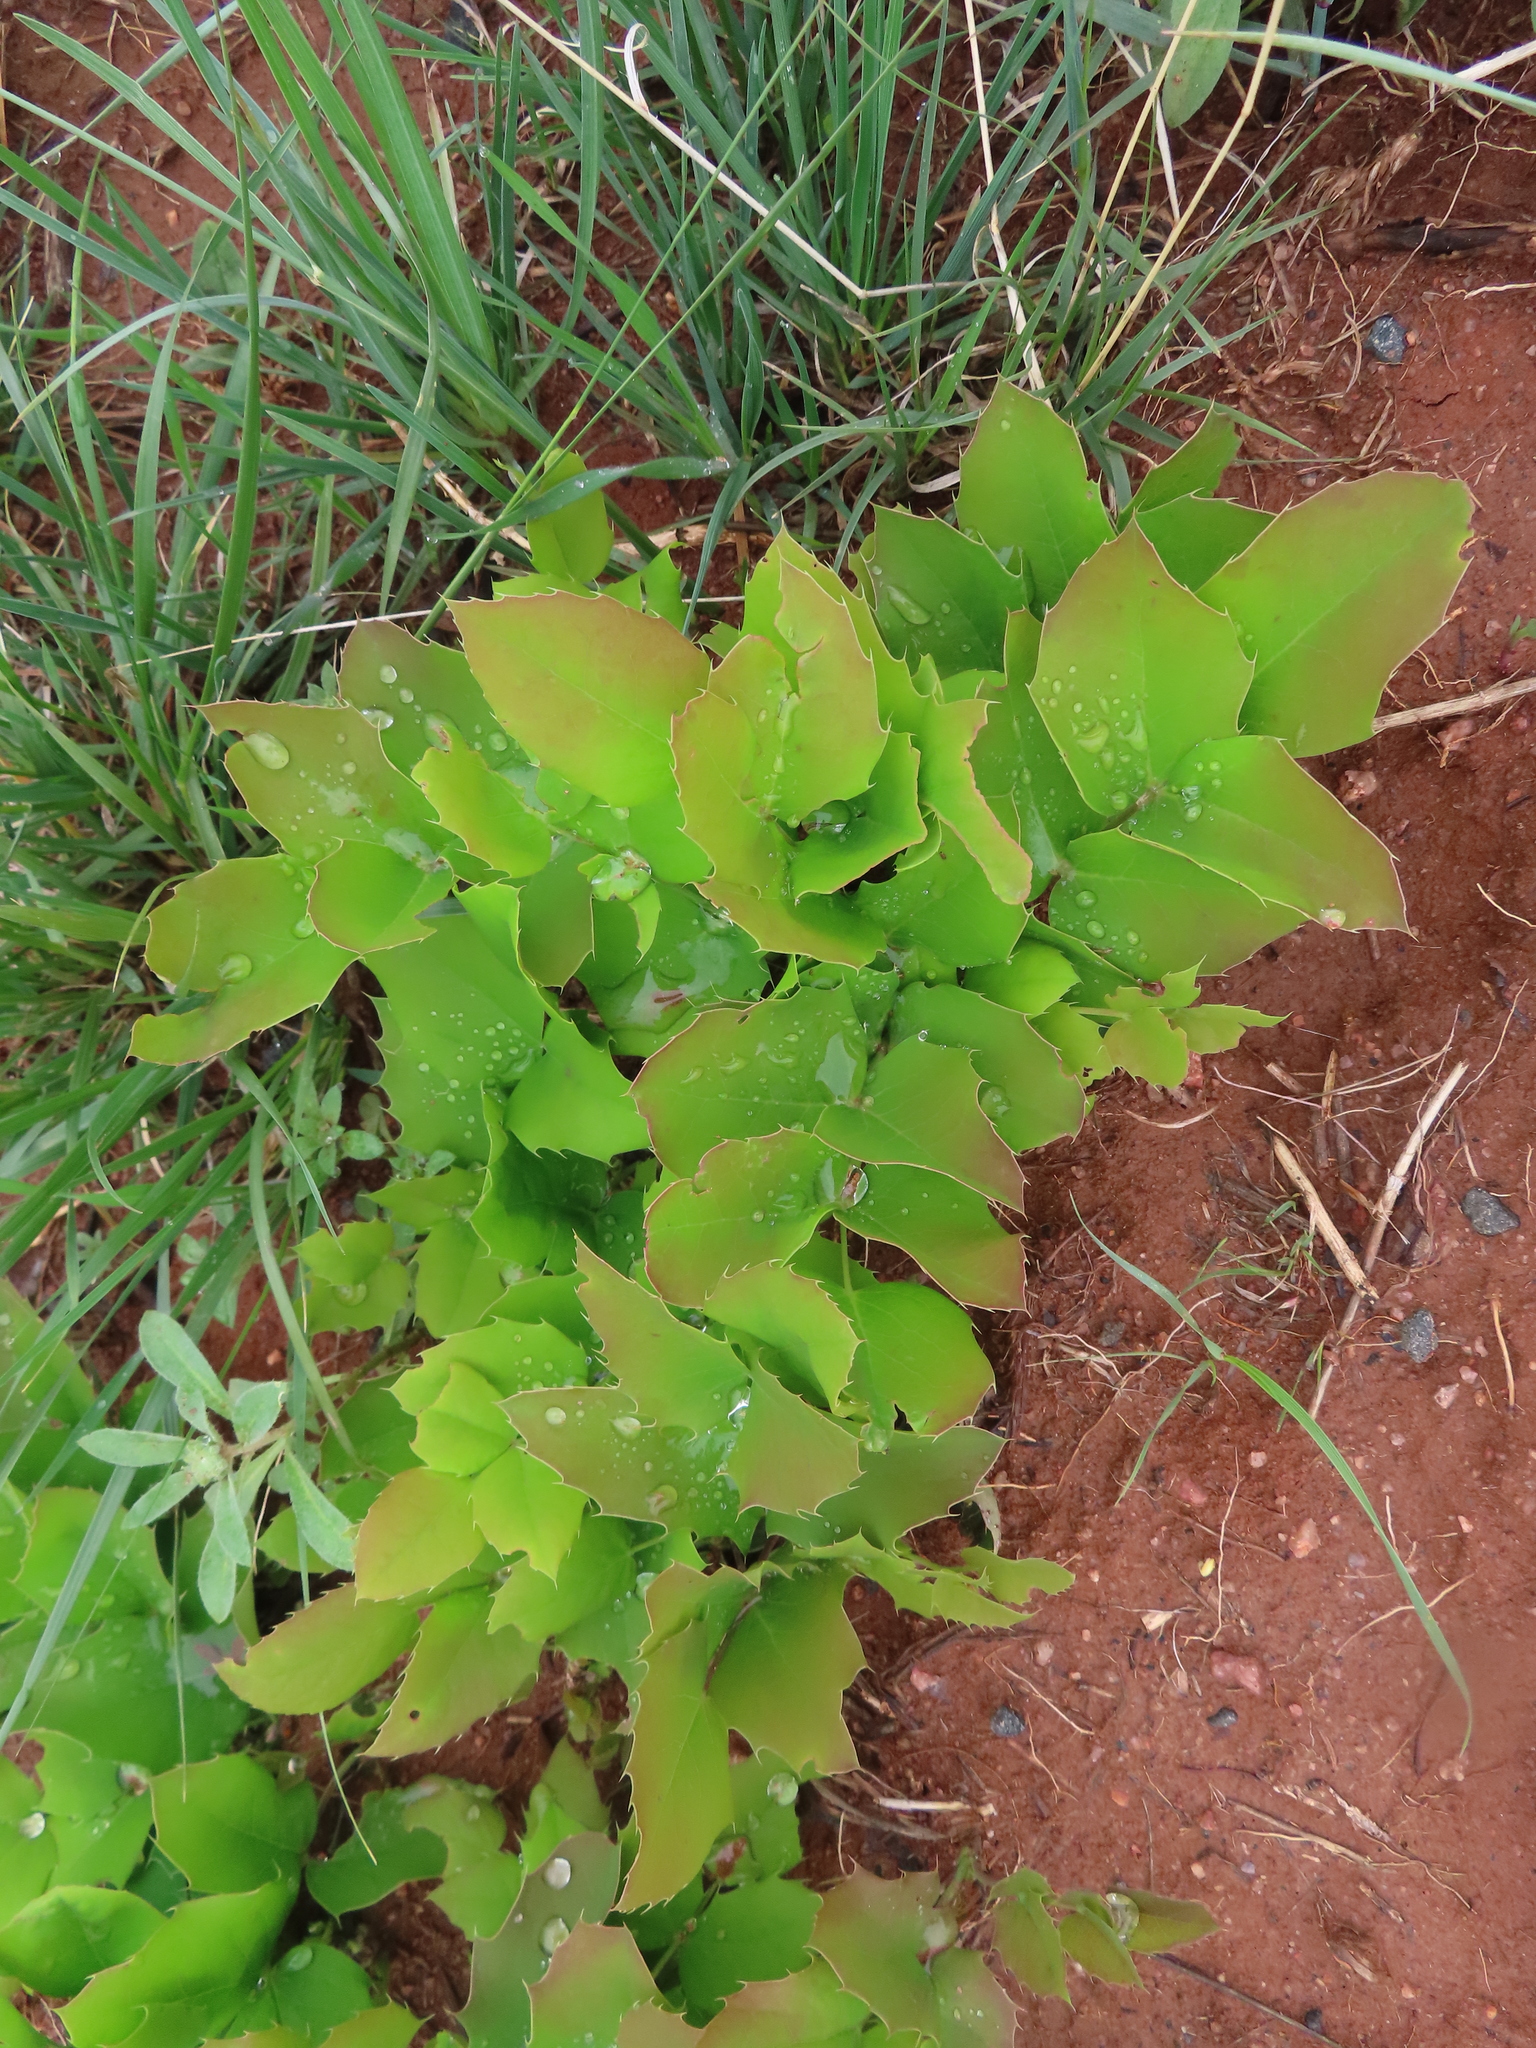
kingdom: Plantae
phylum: Tracheophyta
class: Magnoliopsida
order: Ranunculales
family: Berberidaceae
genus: Mahonia
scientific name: Mahonia repens
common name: Creeping oregon-grape
